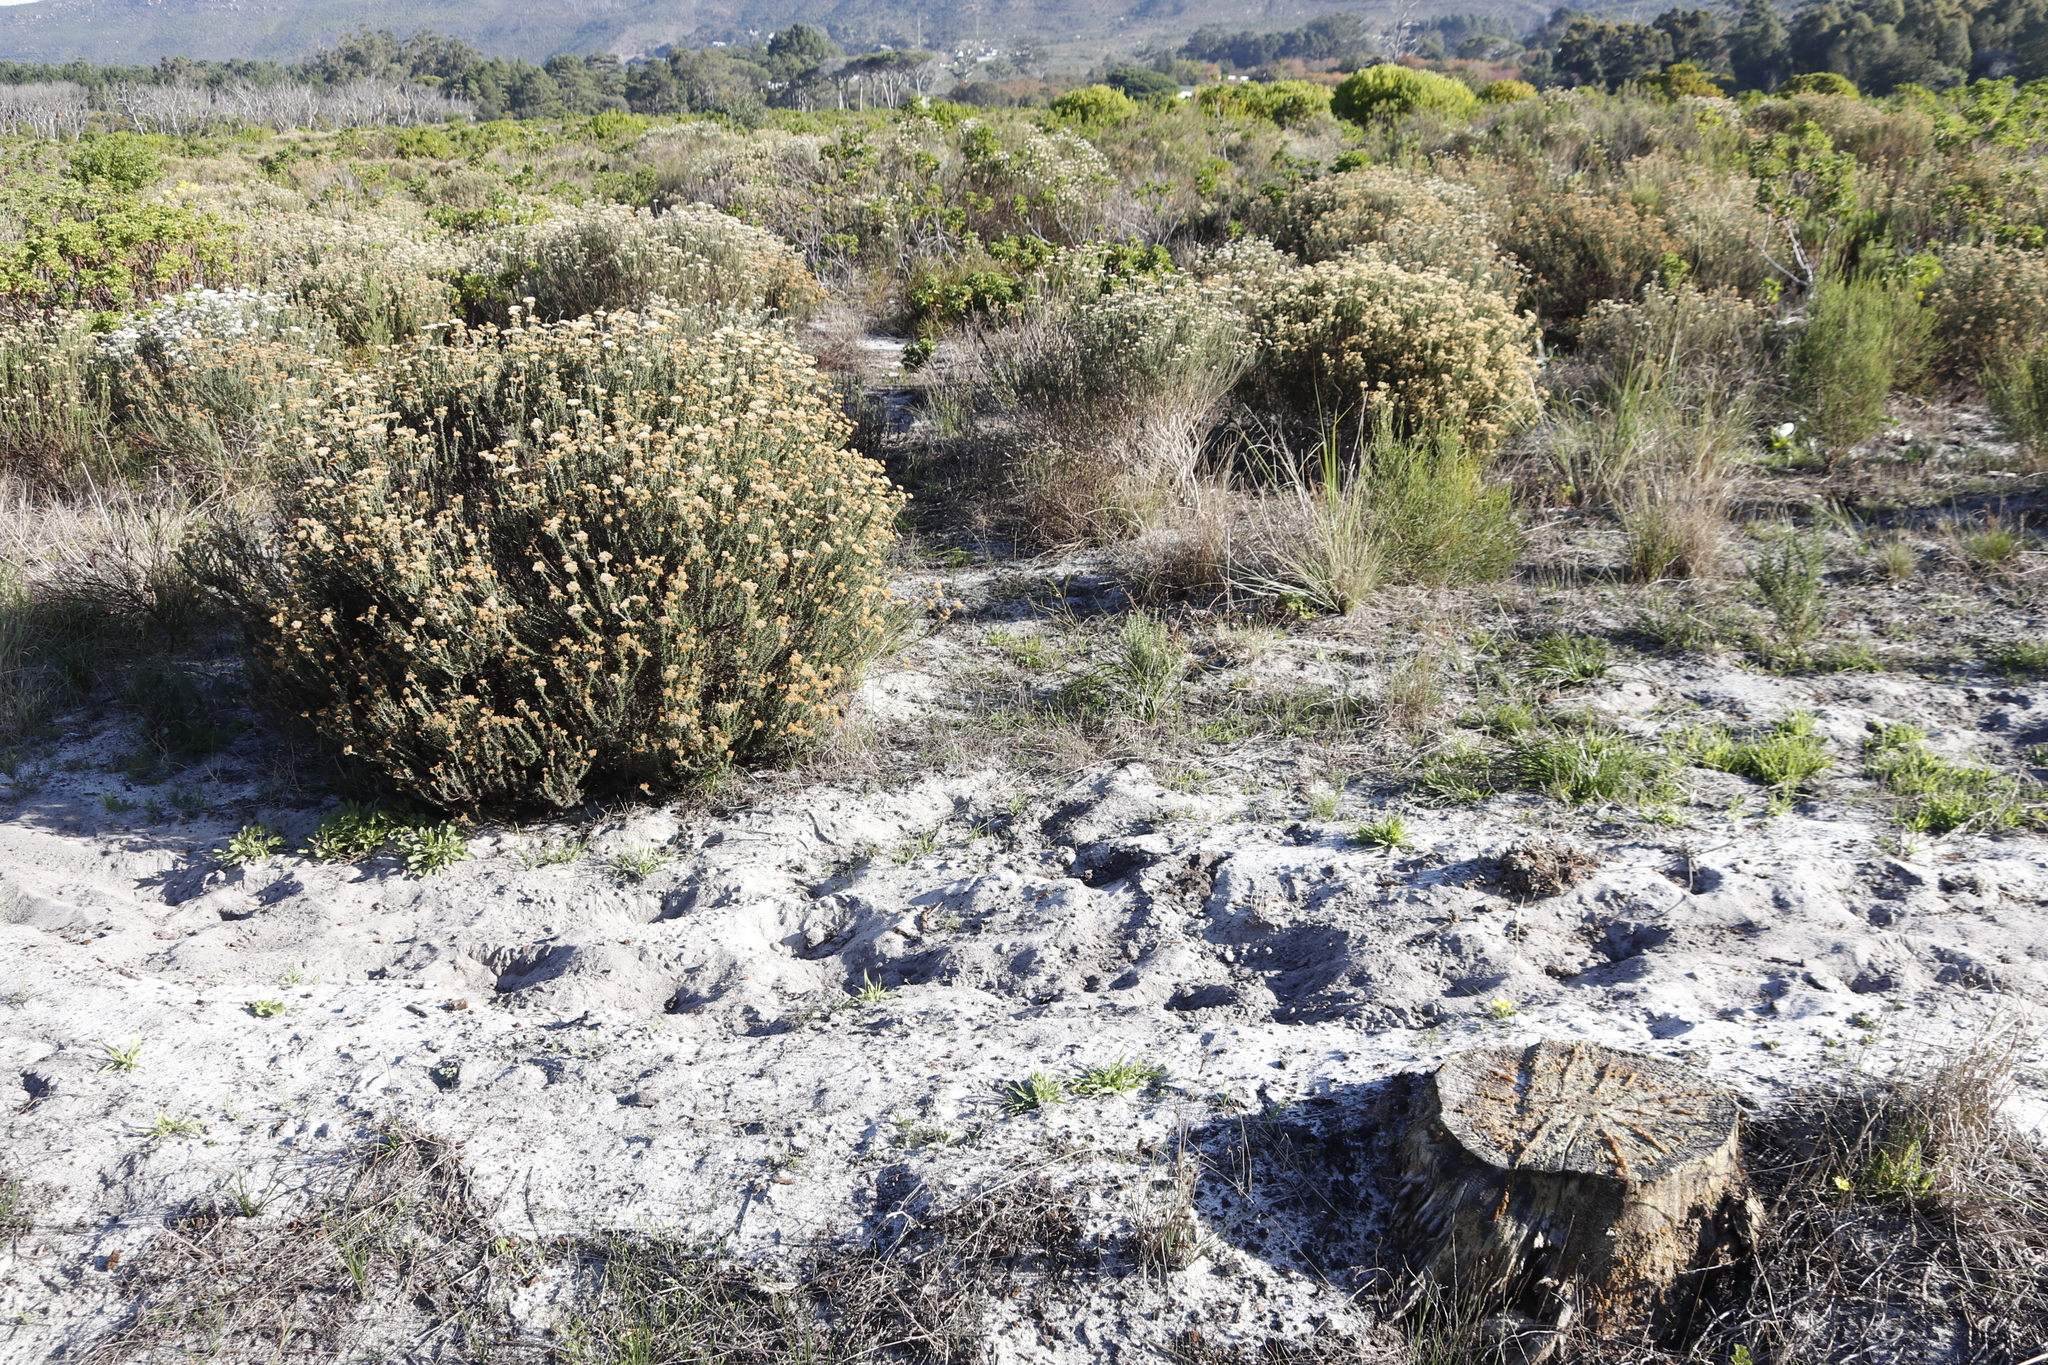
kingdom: Plantae
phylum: Tracheophyta
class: Magnoliopsida
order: Asterales
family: Asteraceae
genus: Metalasia
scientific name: Metalasia densa
